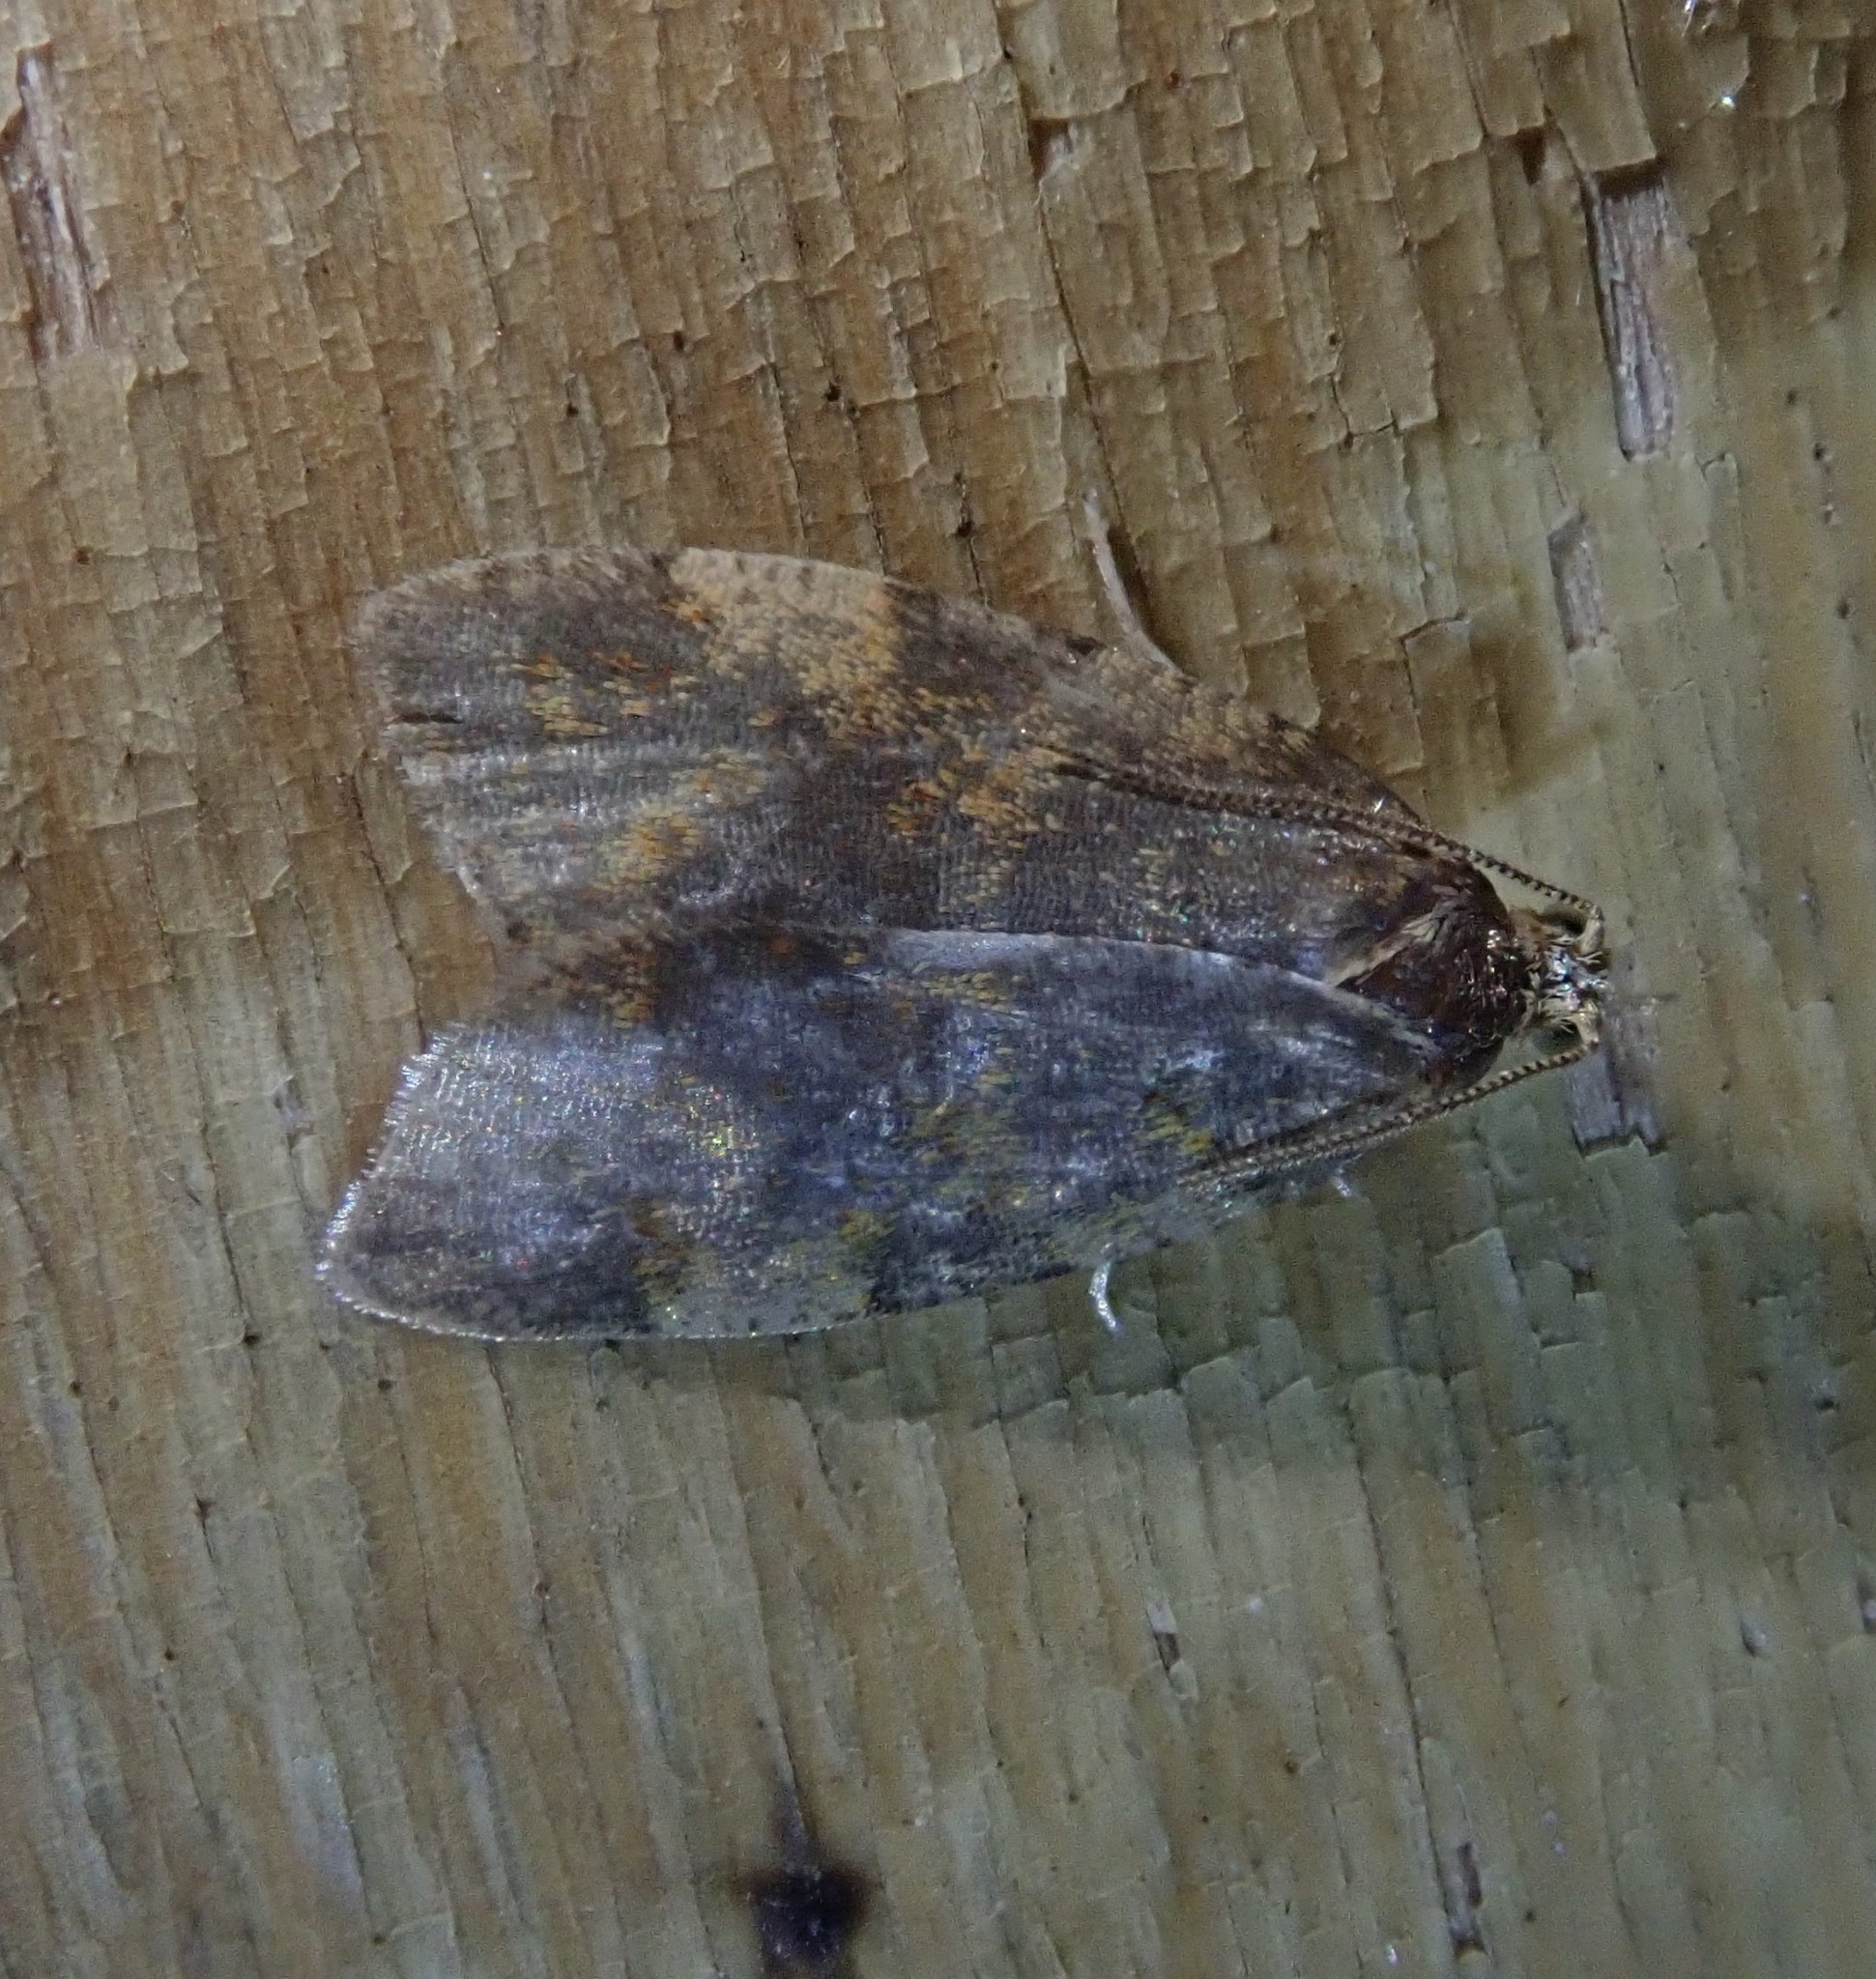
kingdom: Animalia
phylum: Arthropoda
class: Insecta
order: Lepidoptera
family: Tortricidae
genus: Epagoge
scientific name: Epagoge grotiana
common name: Brown-barred twist
